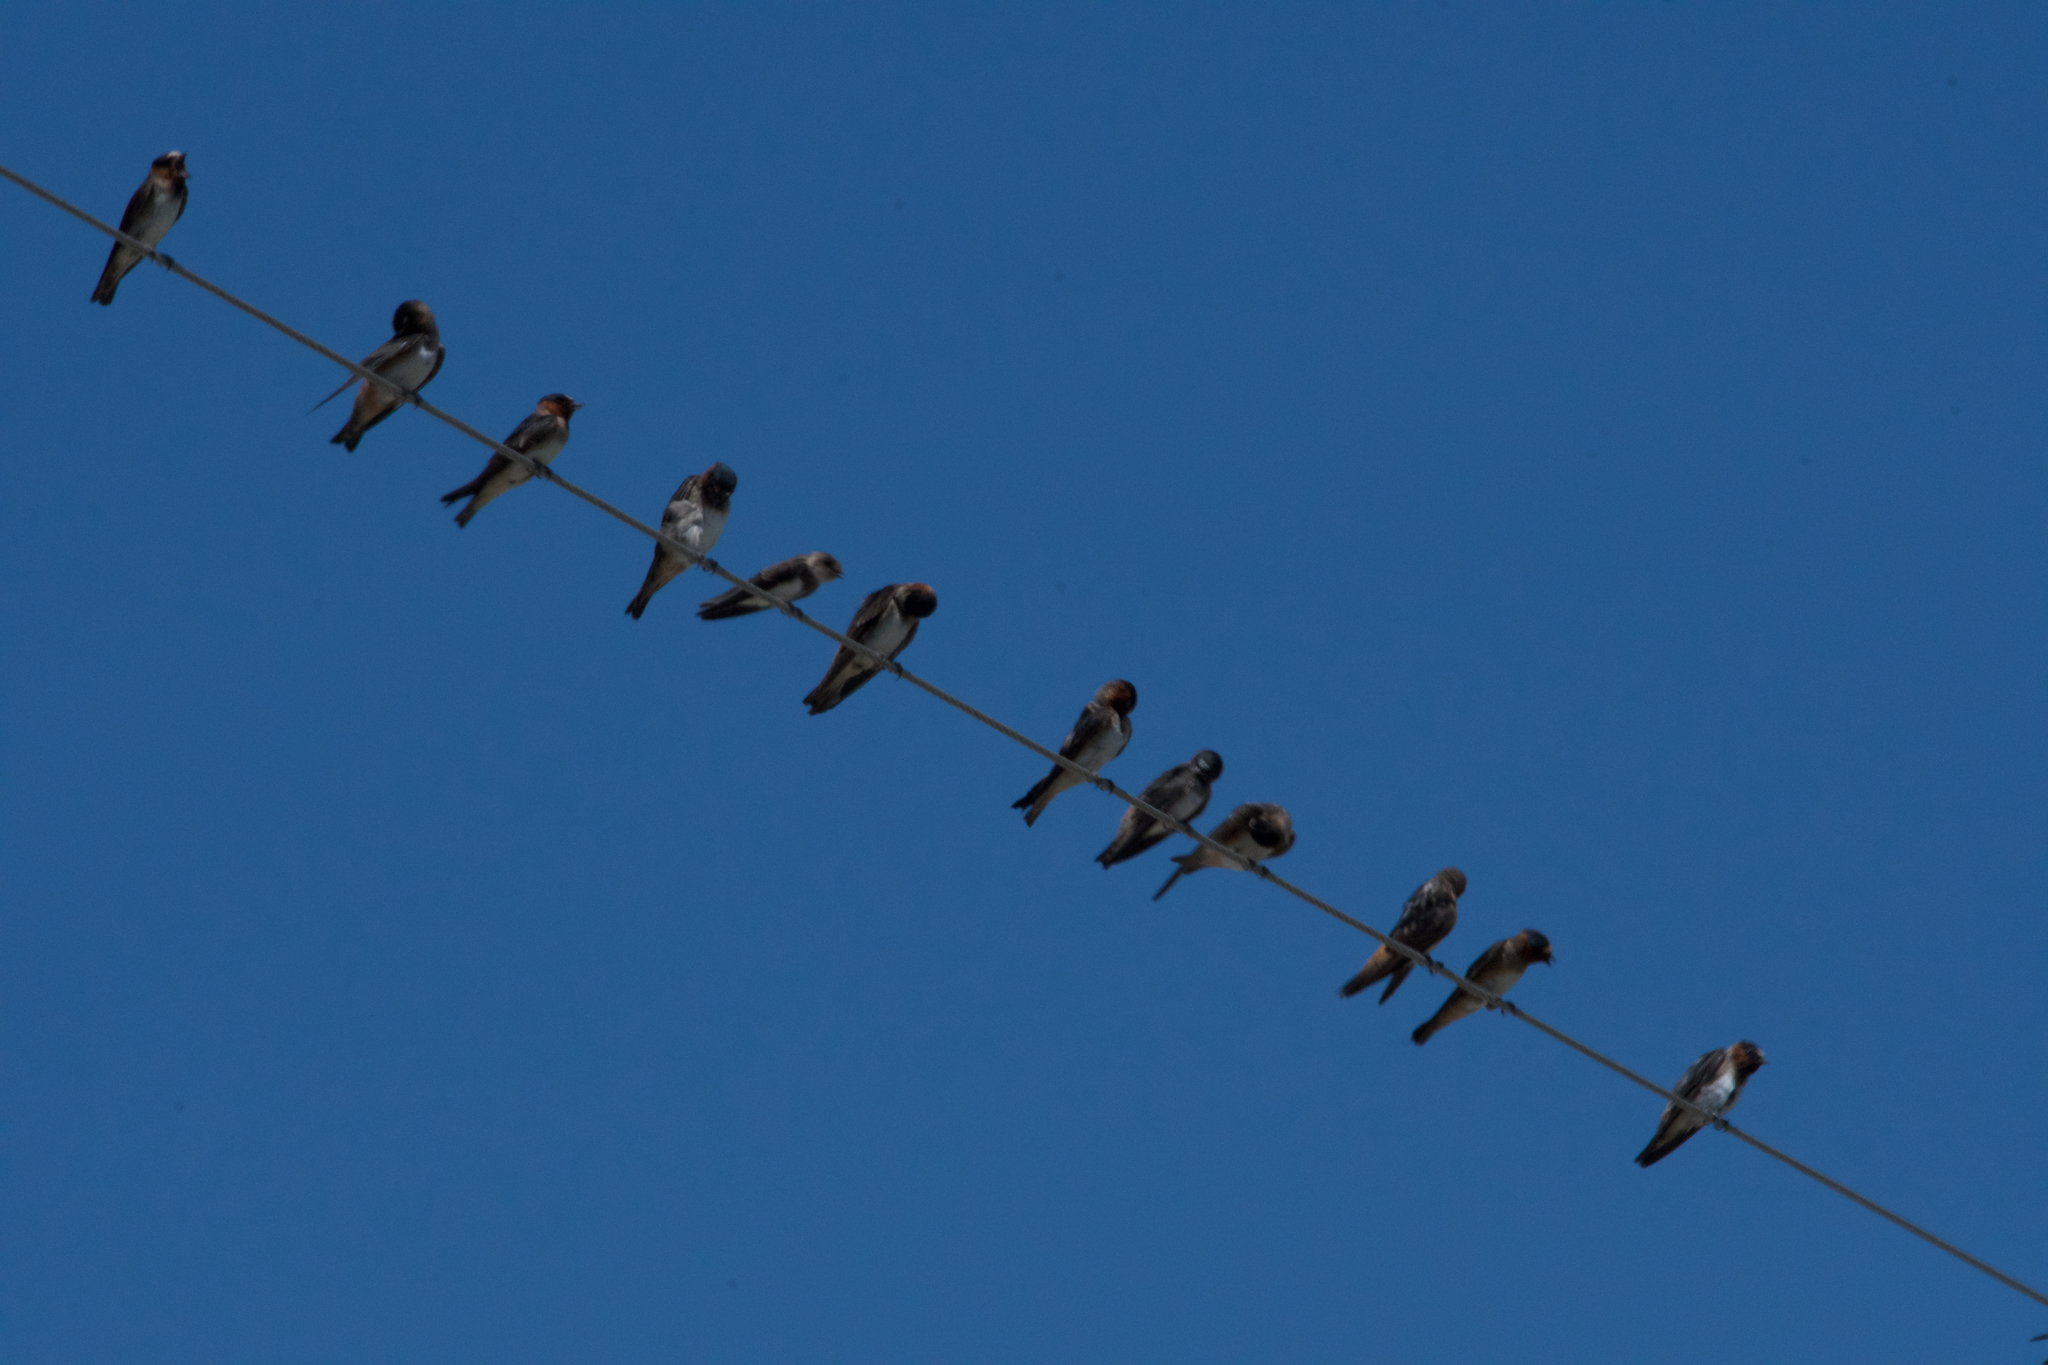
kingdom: Animalia
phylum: Chordata
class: Aves
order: Passeriformes
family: Hirundinidae
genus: Petrochelidon
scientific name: Petrochelidon pyrrhonota
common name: American cliff swallow
